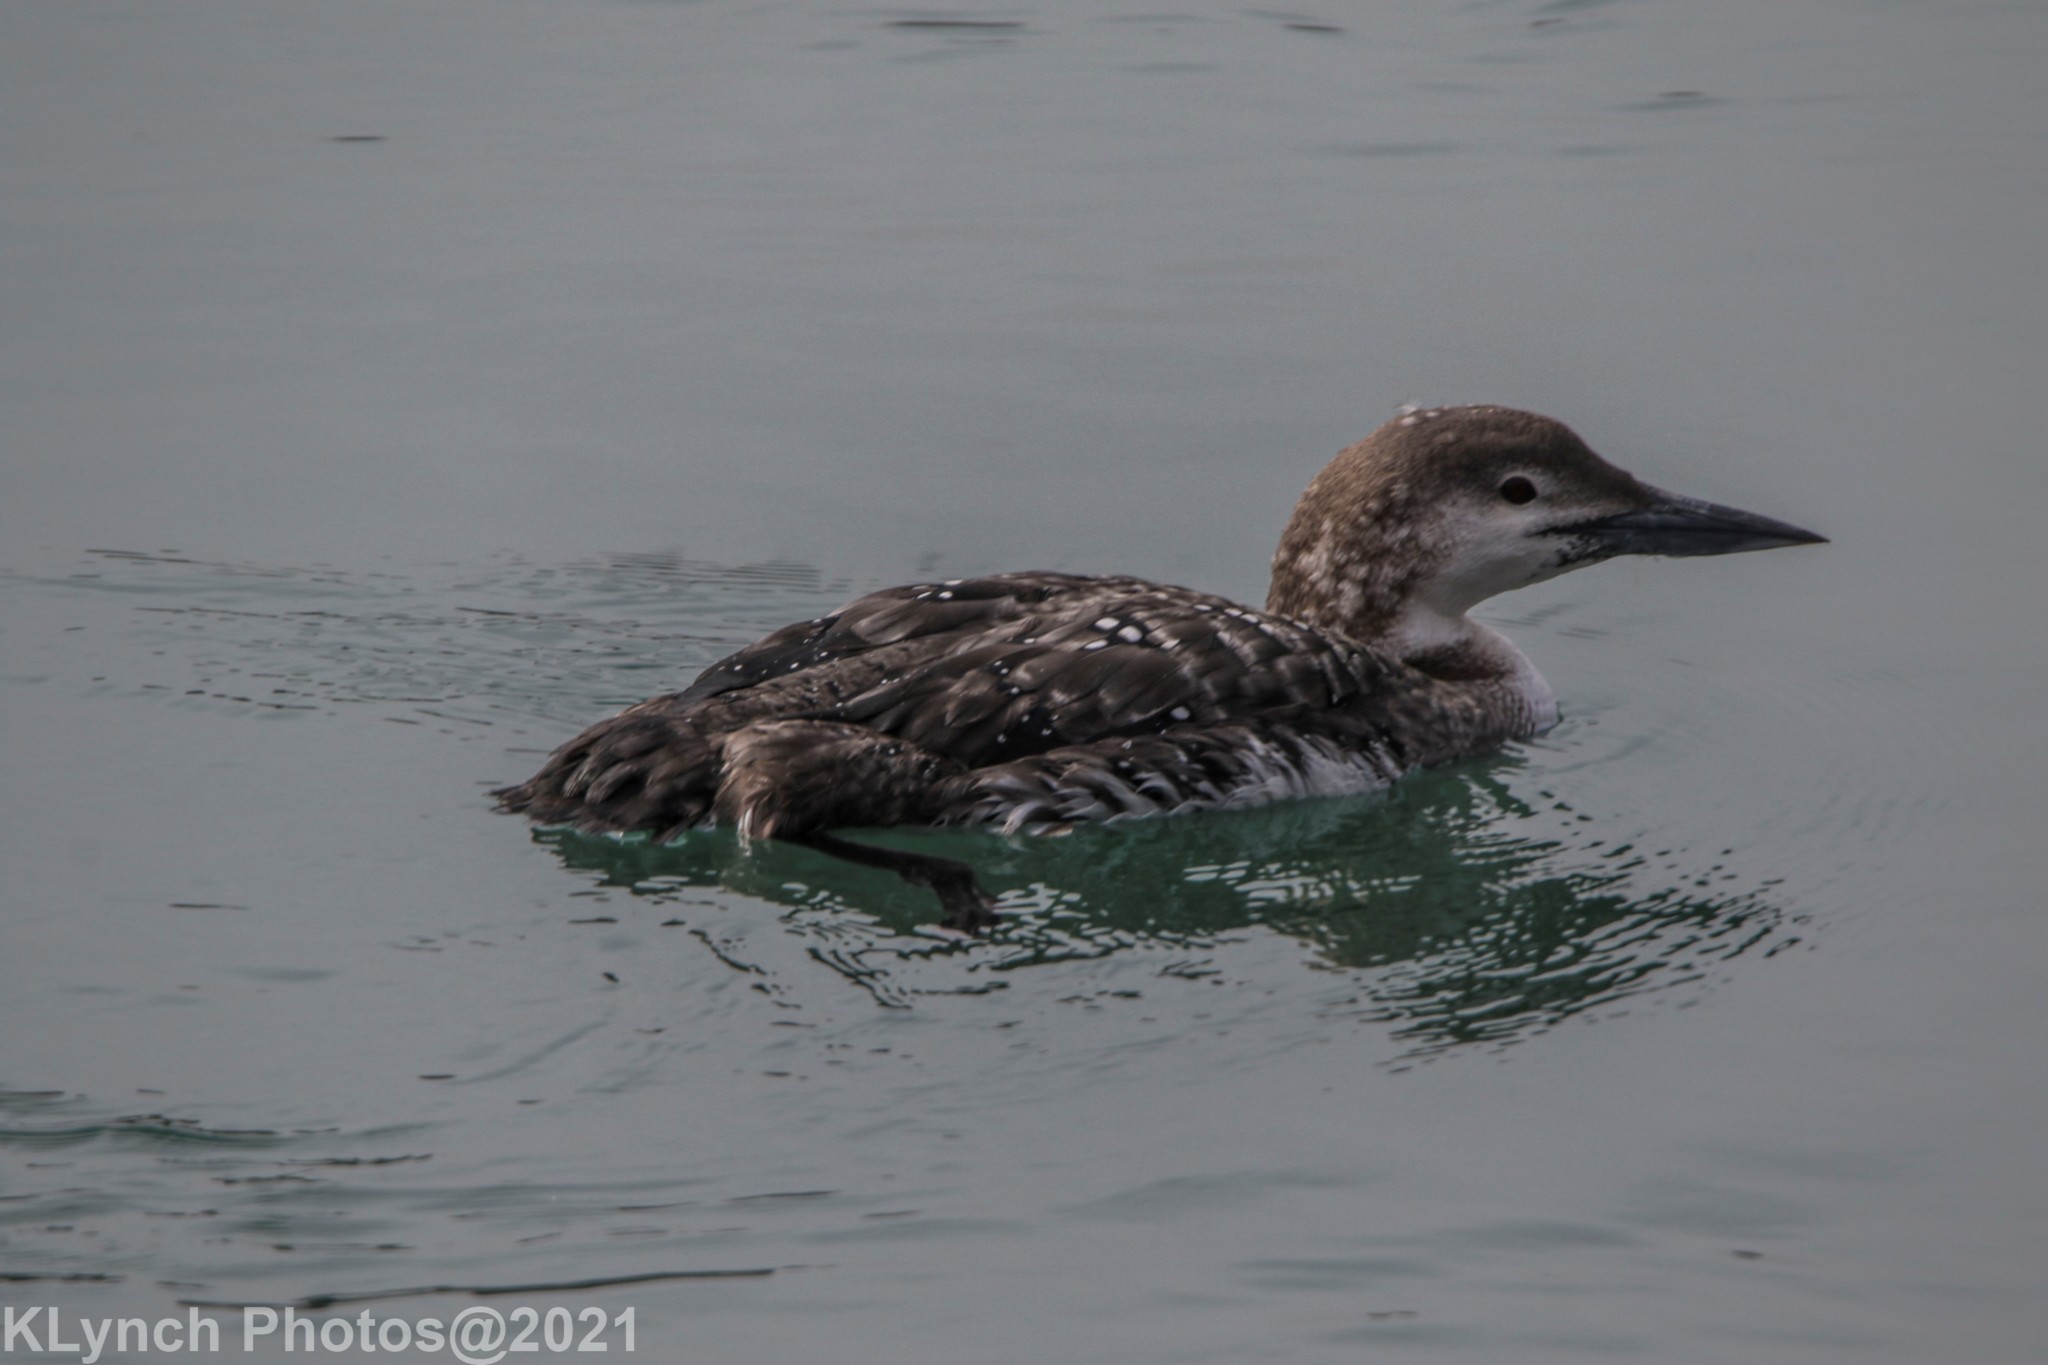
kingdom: Animalia
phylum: Chordata
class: Aves
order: Gaviiformes
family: Gaviidae
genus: Gavia
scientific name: Gavia immer
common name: Common loon
